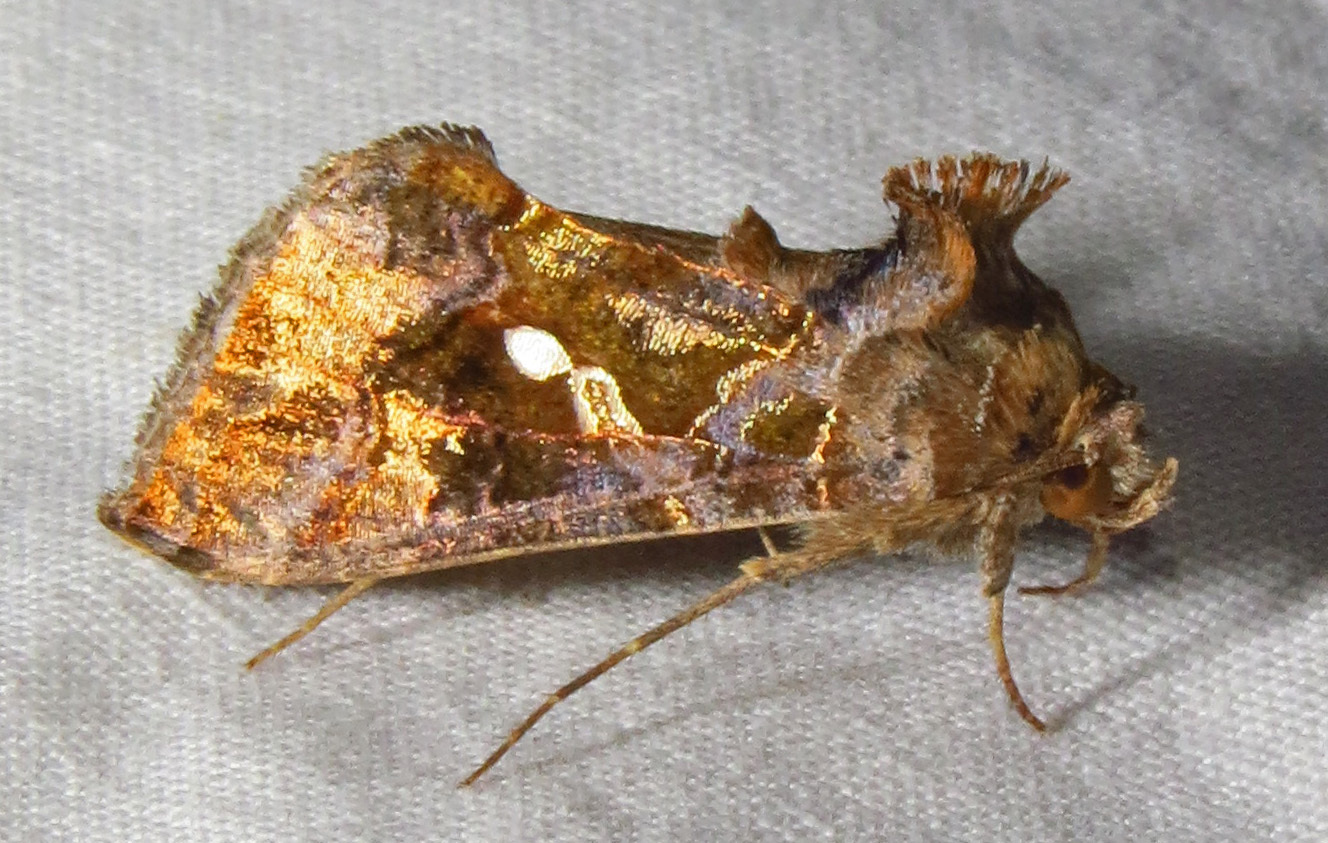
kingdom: Animalia
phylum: Arthropoda
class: Insecta
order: Lepidoptera
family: Noctuidae
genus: Chrysodeixis
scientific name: Chrysodeixis includens
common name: Cutworm moth
